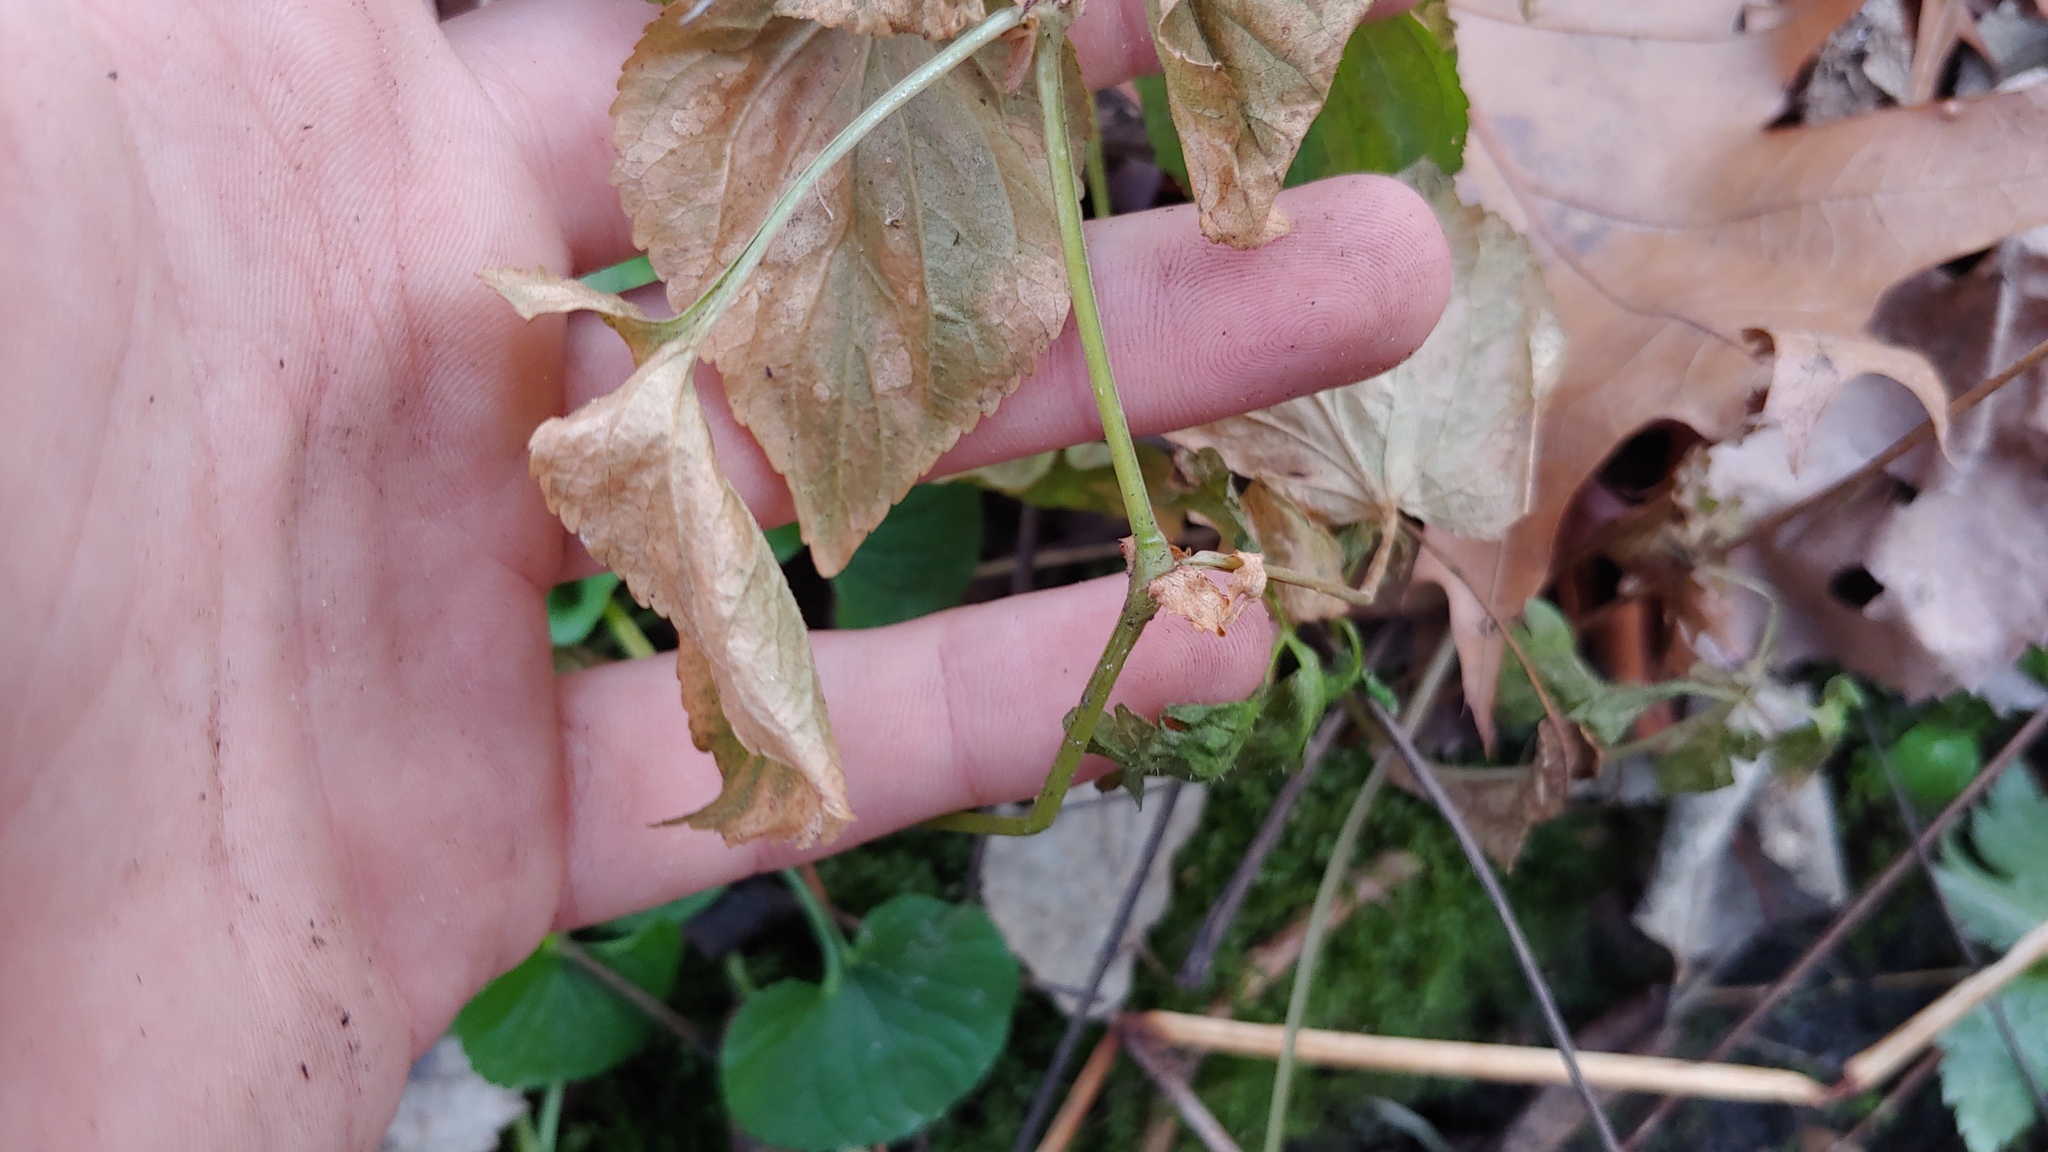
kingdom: Plantae
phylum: Tracheophyta
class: Magnoliopsida
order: Malpighiales
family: Violaceae
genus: Viola
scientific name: Viola striata
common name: Cream violet
